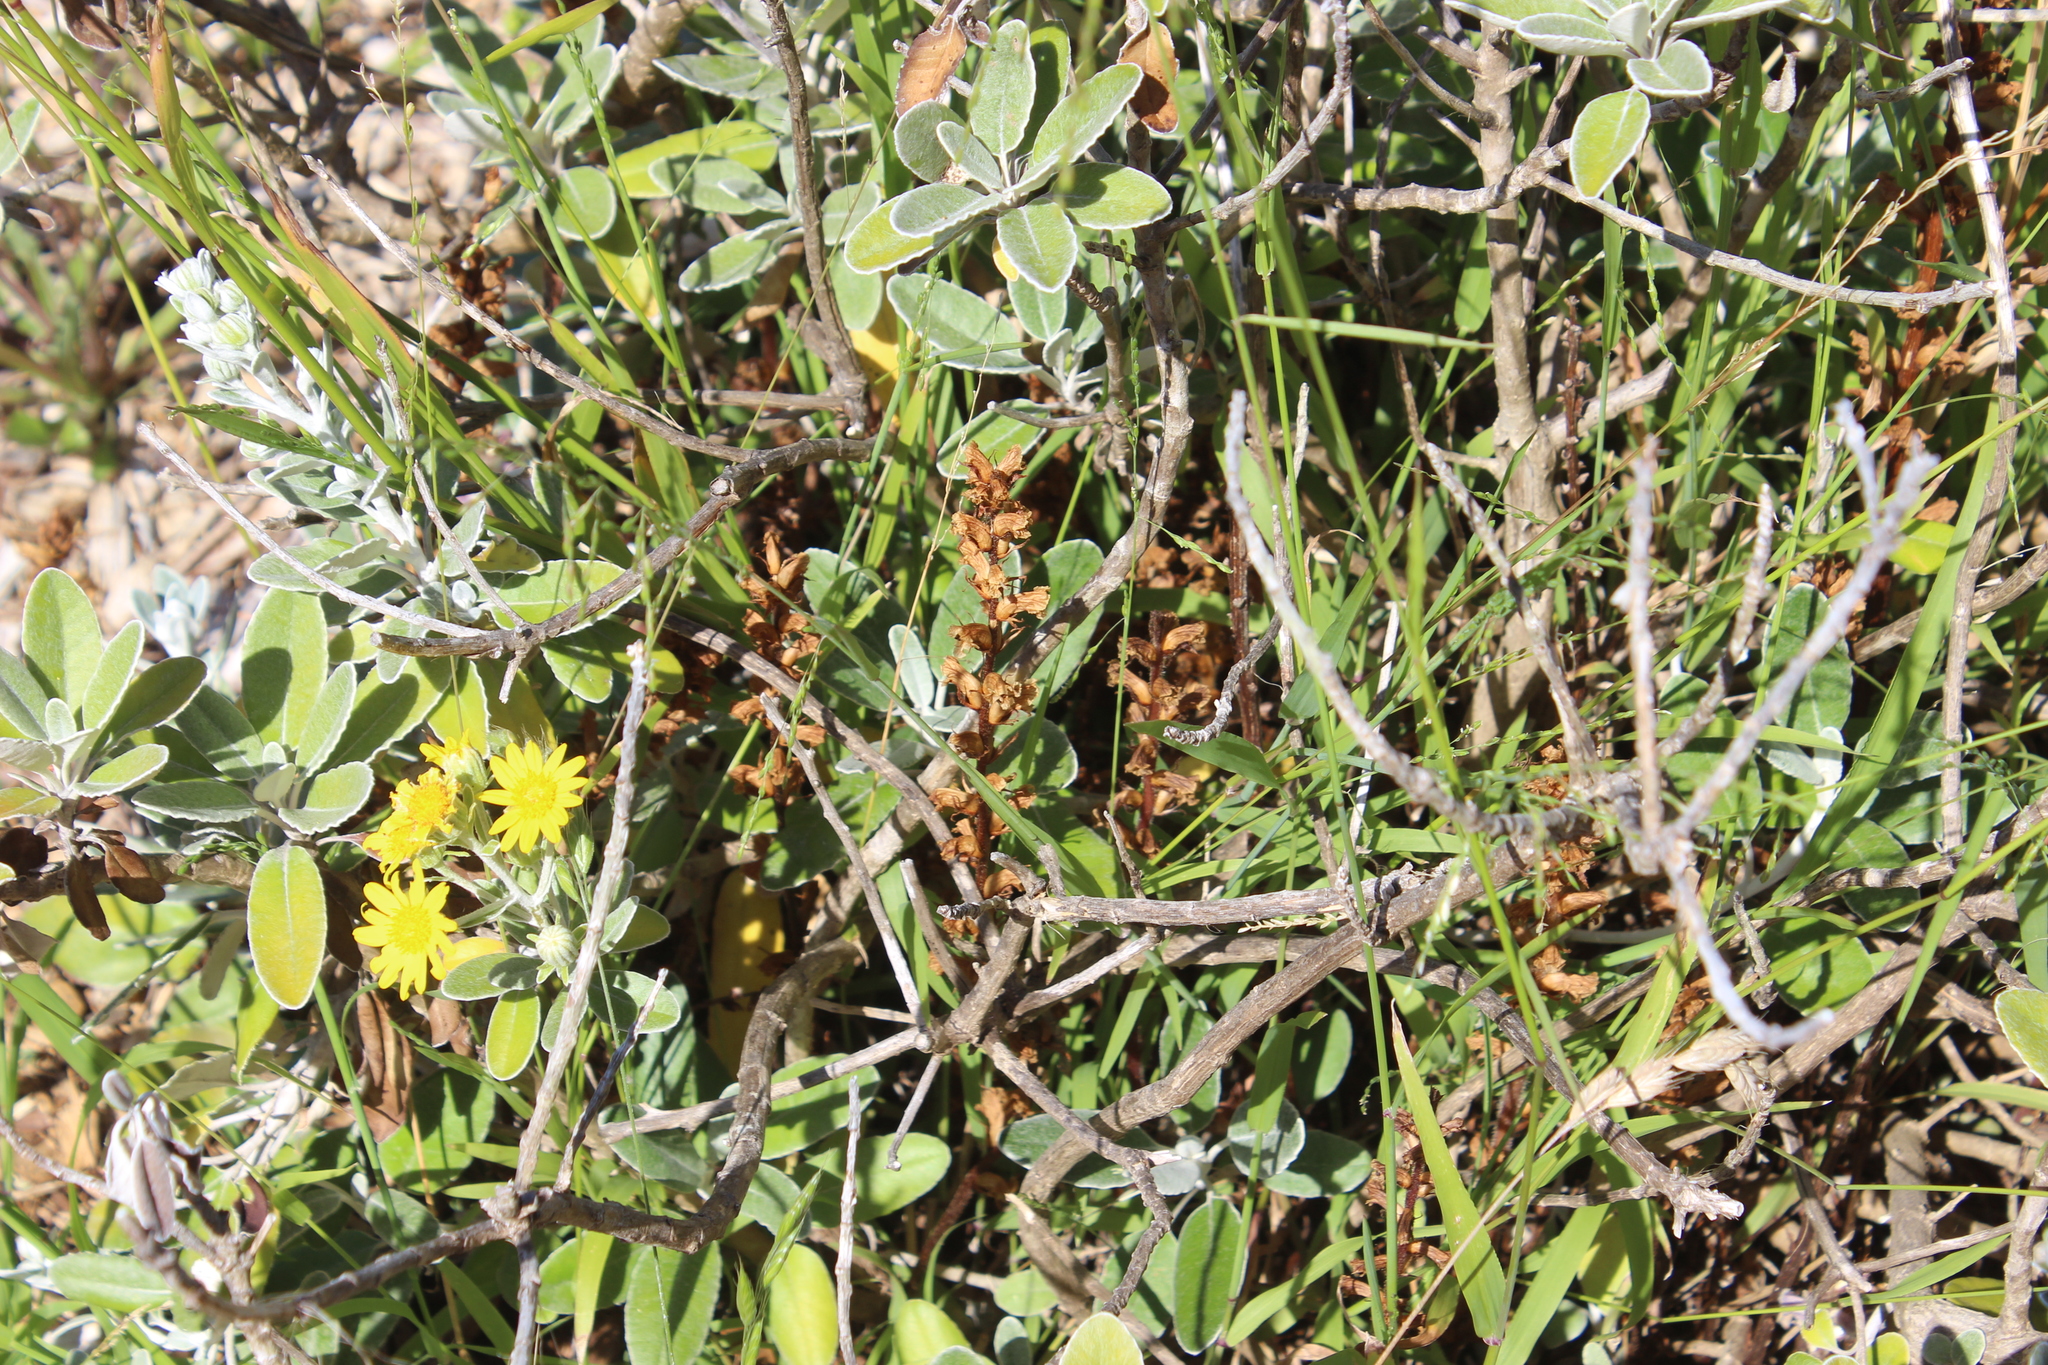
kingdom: Plantae
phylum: Tracheophyta
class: Magnoliopsida
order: Lamiales
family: Orobanchaceae
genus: Orobanche
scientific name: Orobanche minor
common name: Common broomrape
